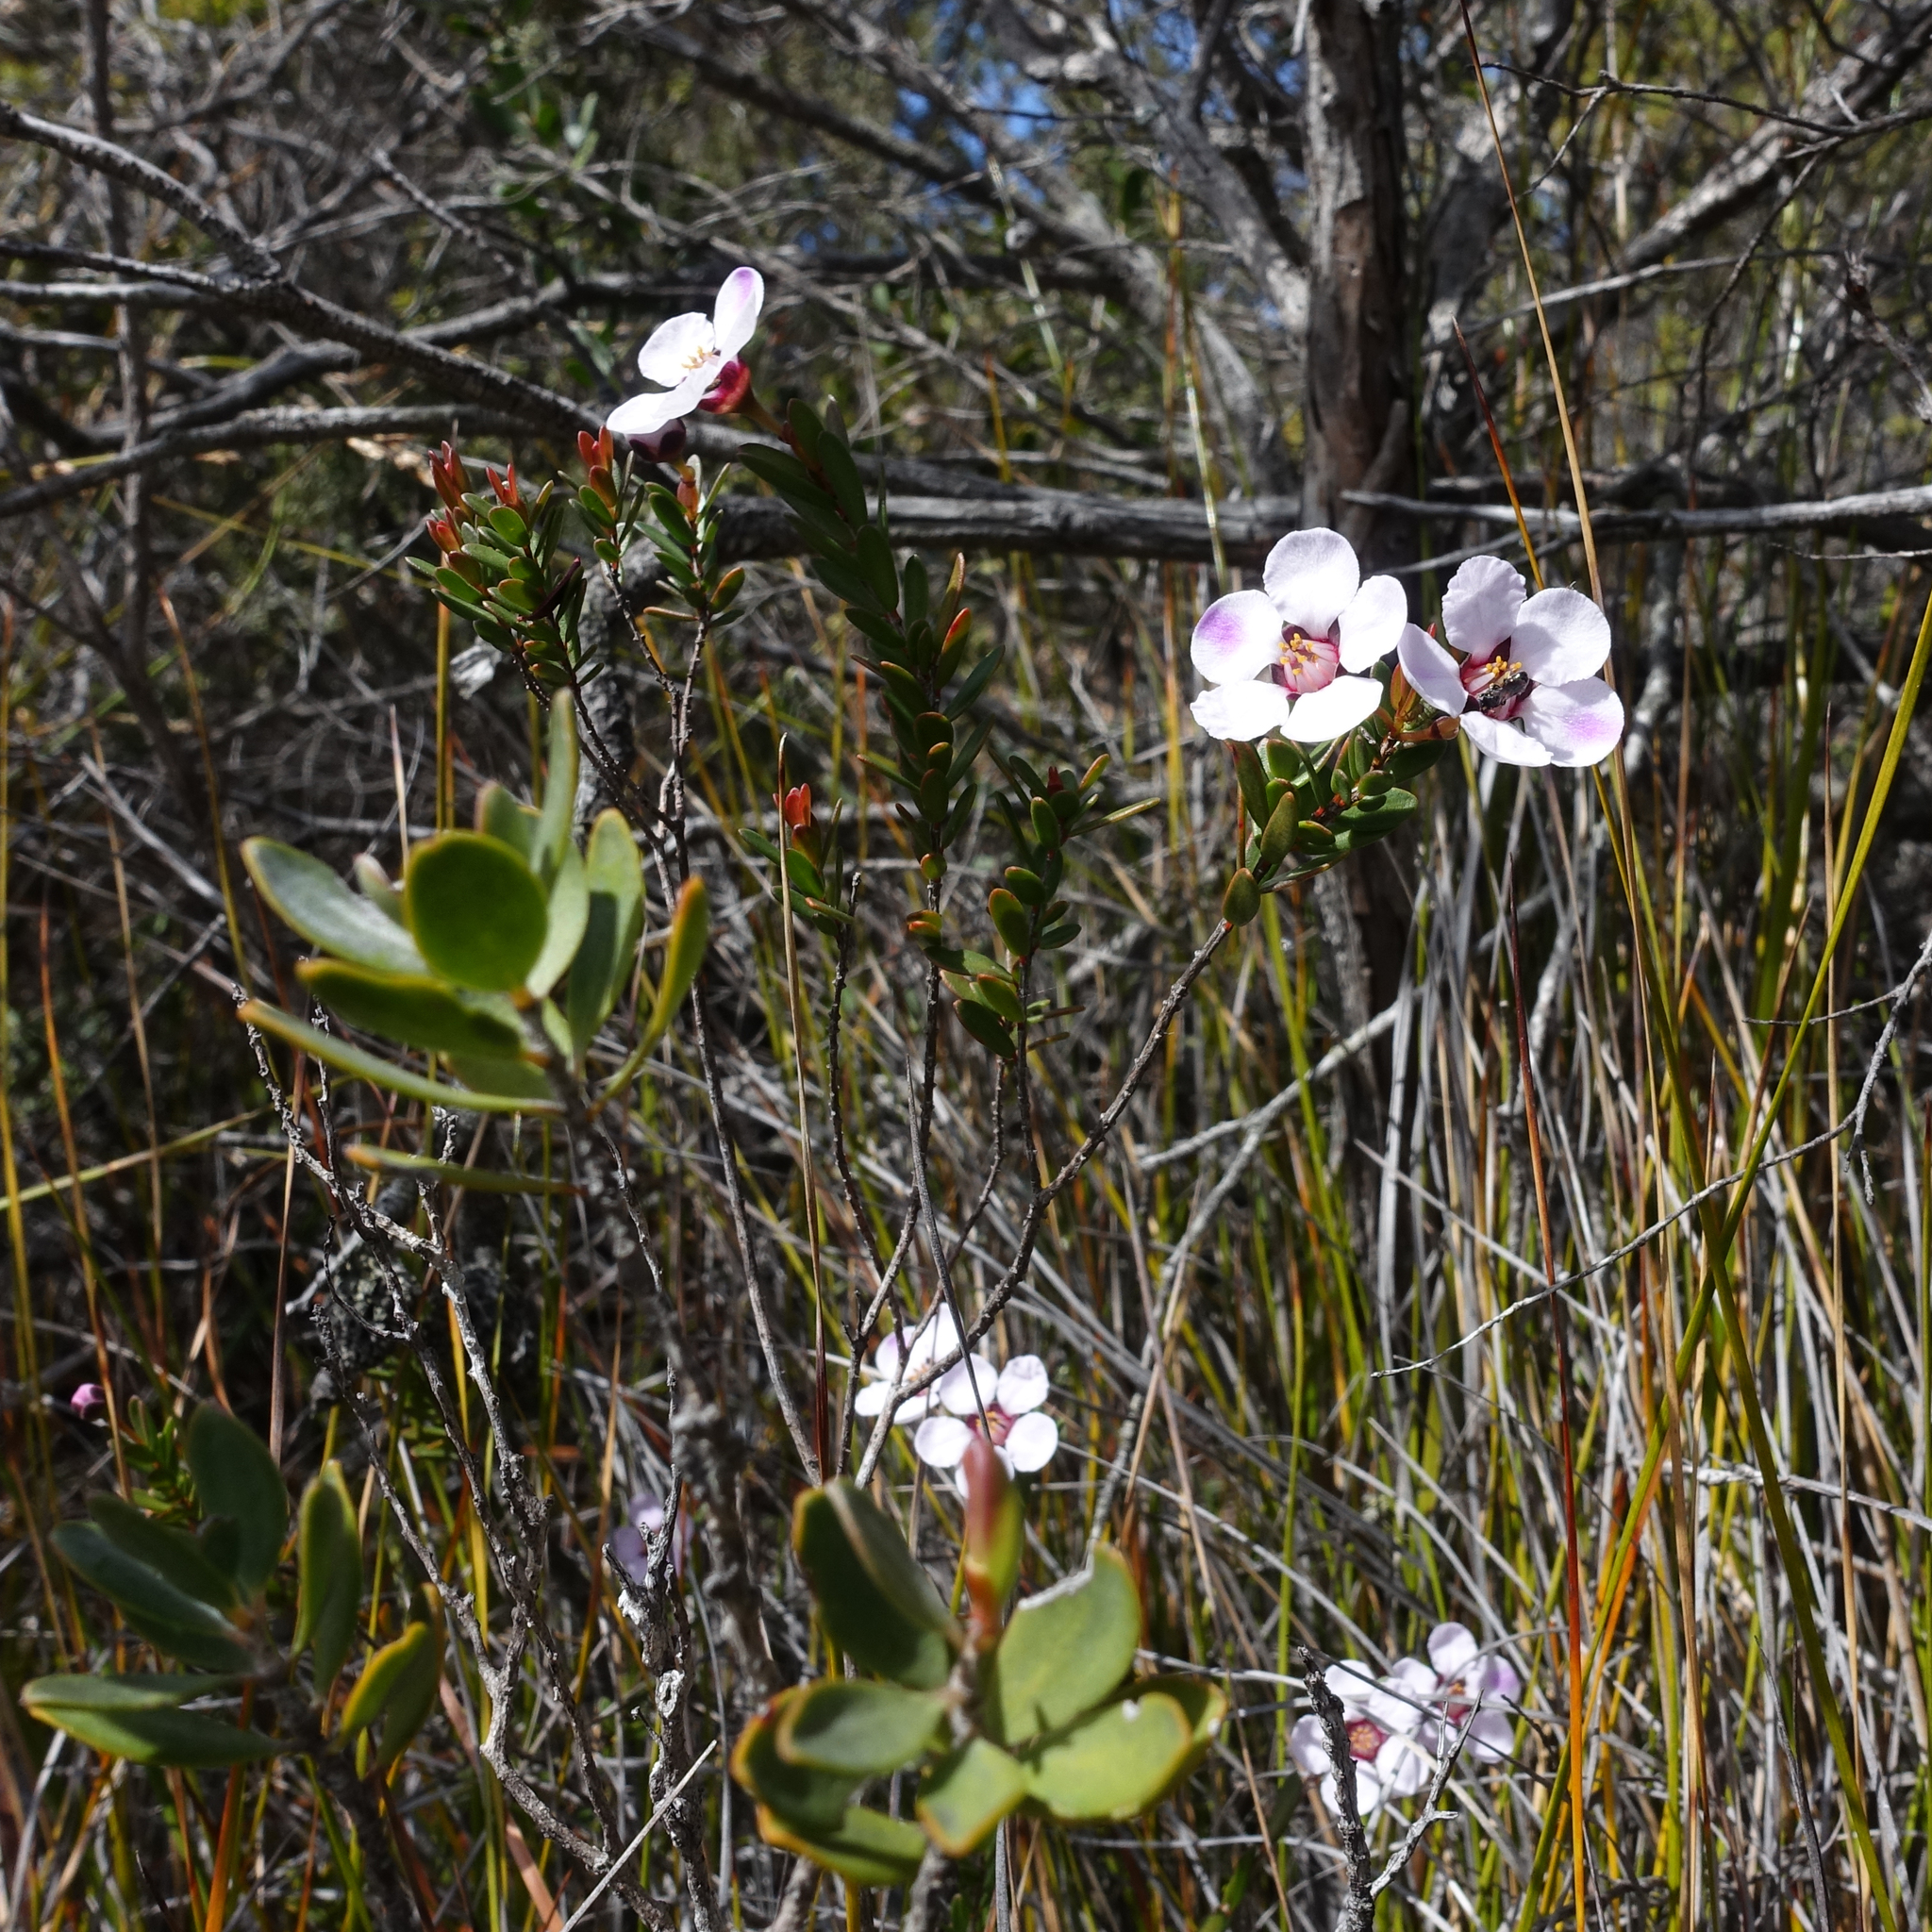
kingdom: Plantae
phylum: Tracheophyta
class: Magnoliopsida
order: Myrtales
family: Myrtaceae
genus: Euryomyrtus
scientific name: Euryomyrtus ramosissima
